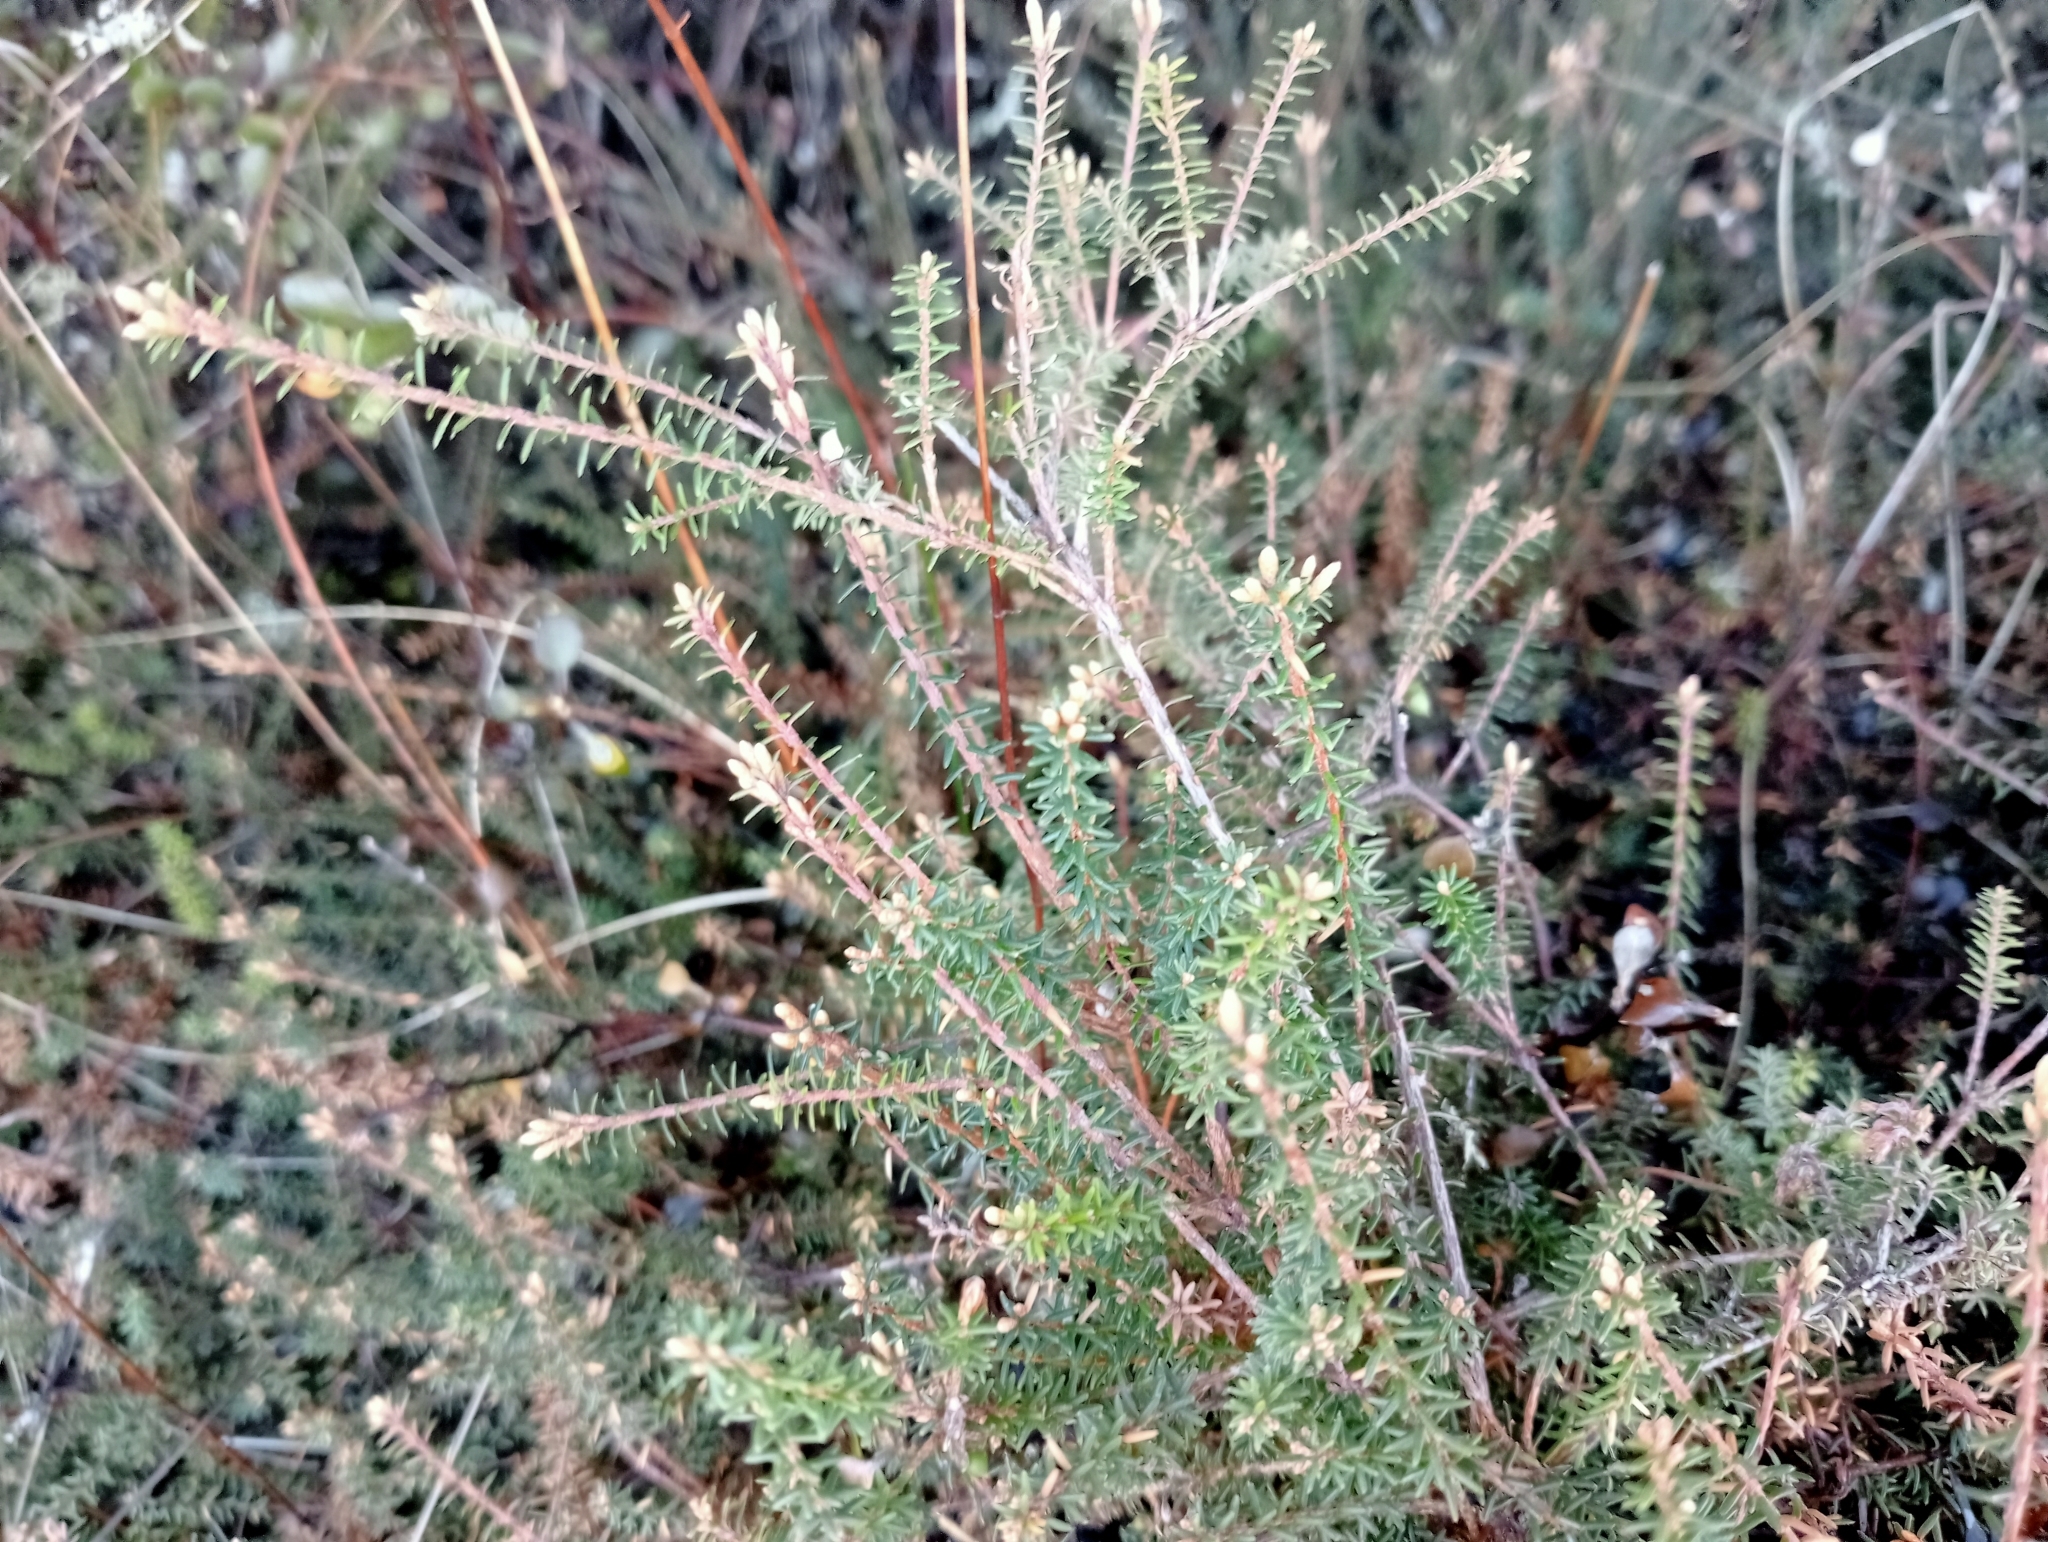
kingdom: Plantae
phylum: Tracheophyta
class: Magnoliopsida
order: Ericales
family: Ericaceae
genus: Androstoma
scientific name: Androstoma empetrifolia
